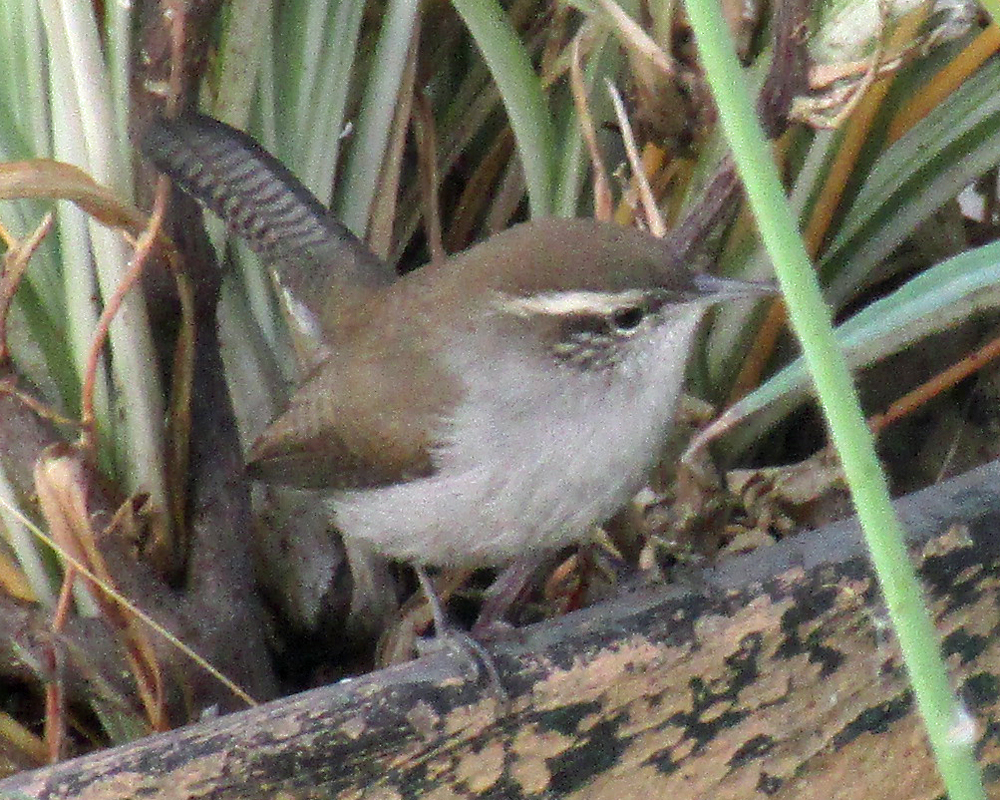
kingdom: Animalia
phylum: Chordata
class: Aves
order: Passeriformes
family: Troglodytidae
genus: Thryomanes
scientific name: Thryomanes bewickii
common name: Bewick's wren
